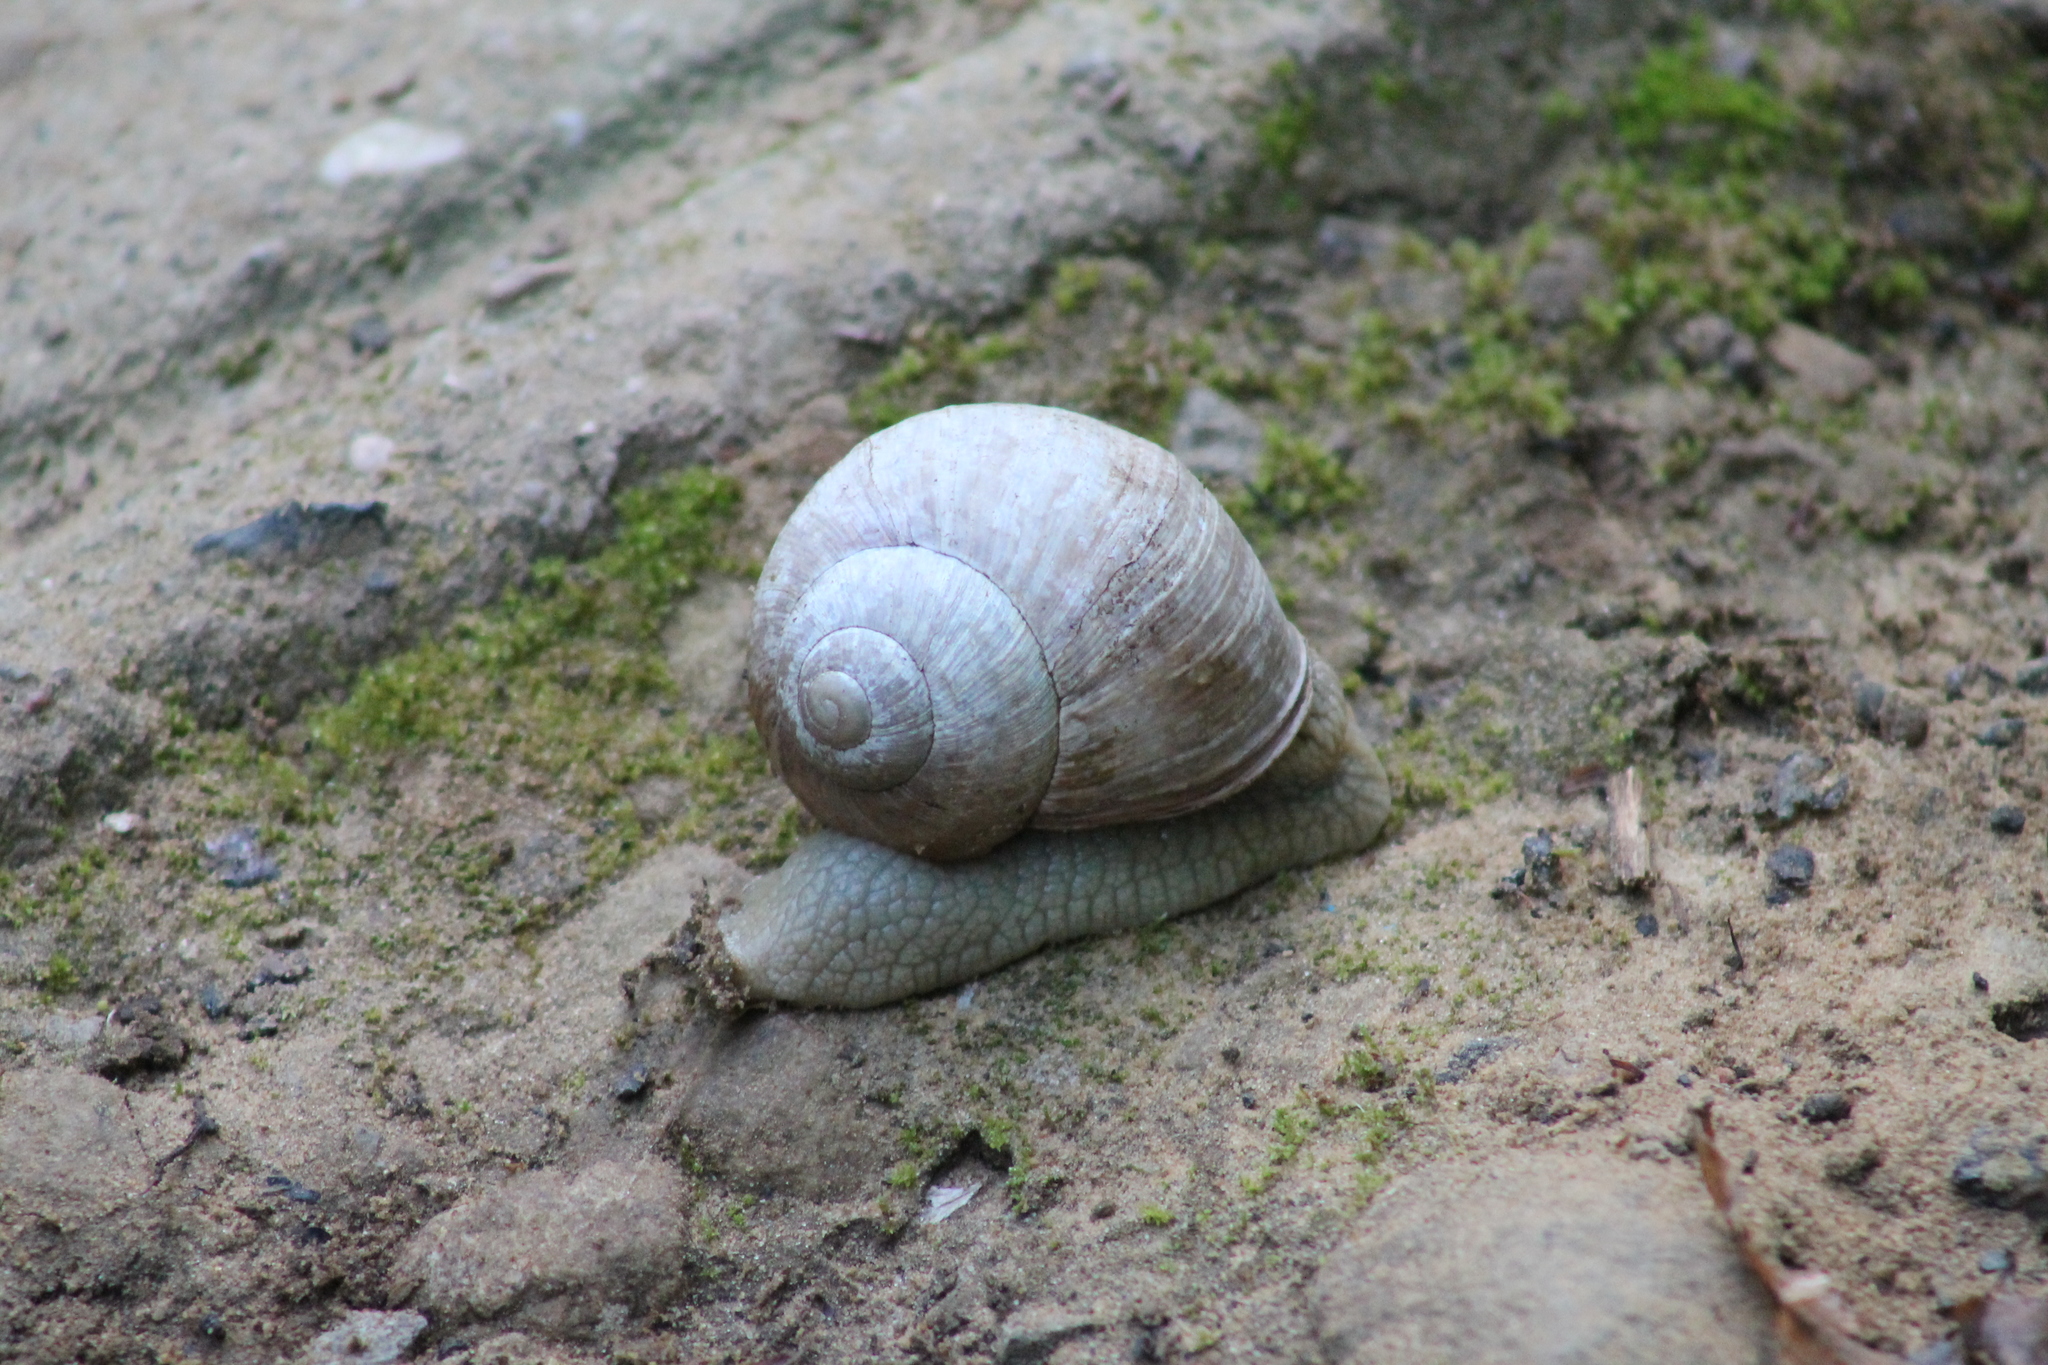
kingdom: Animalia
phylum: Mollusca
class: Gastropoda
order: Stylommatophora
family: Helicidae
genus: Helix
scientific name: Helix pomatia
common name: Roman snail
